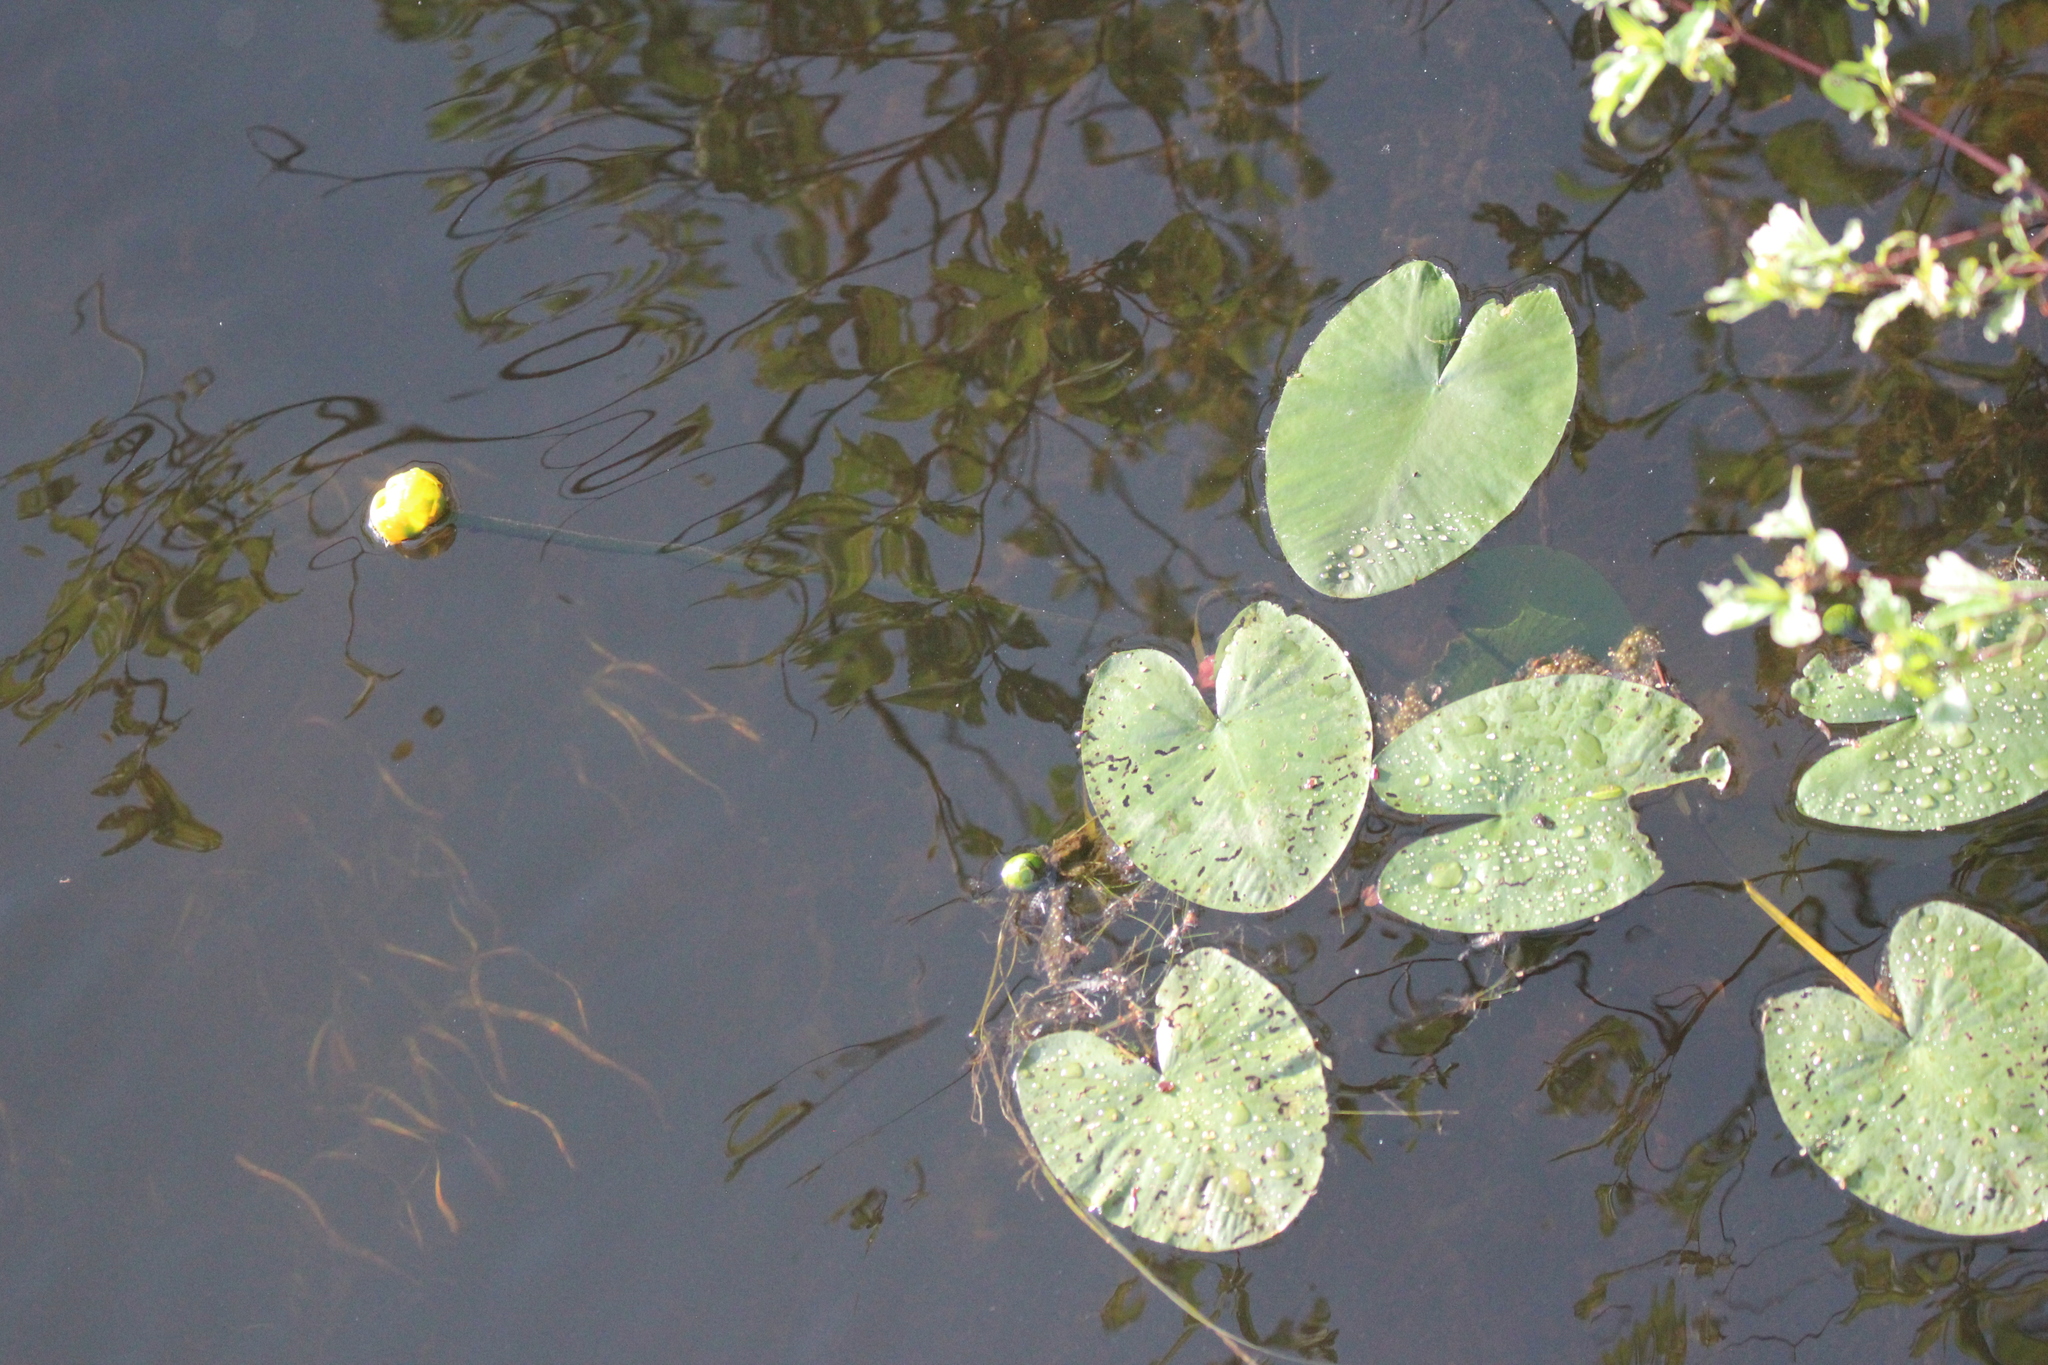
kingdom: Plantae
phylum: Tracheophyta
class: Magnoliopsida
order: Nymphaeales
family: Nymphaeaceae
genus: Nuphar
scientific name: Nuphar variegata
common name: Beaver-root
